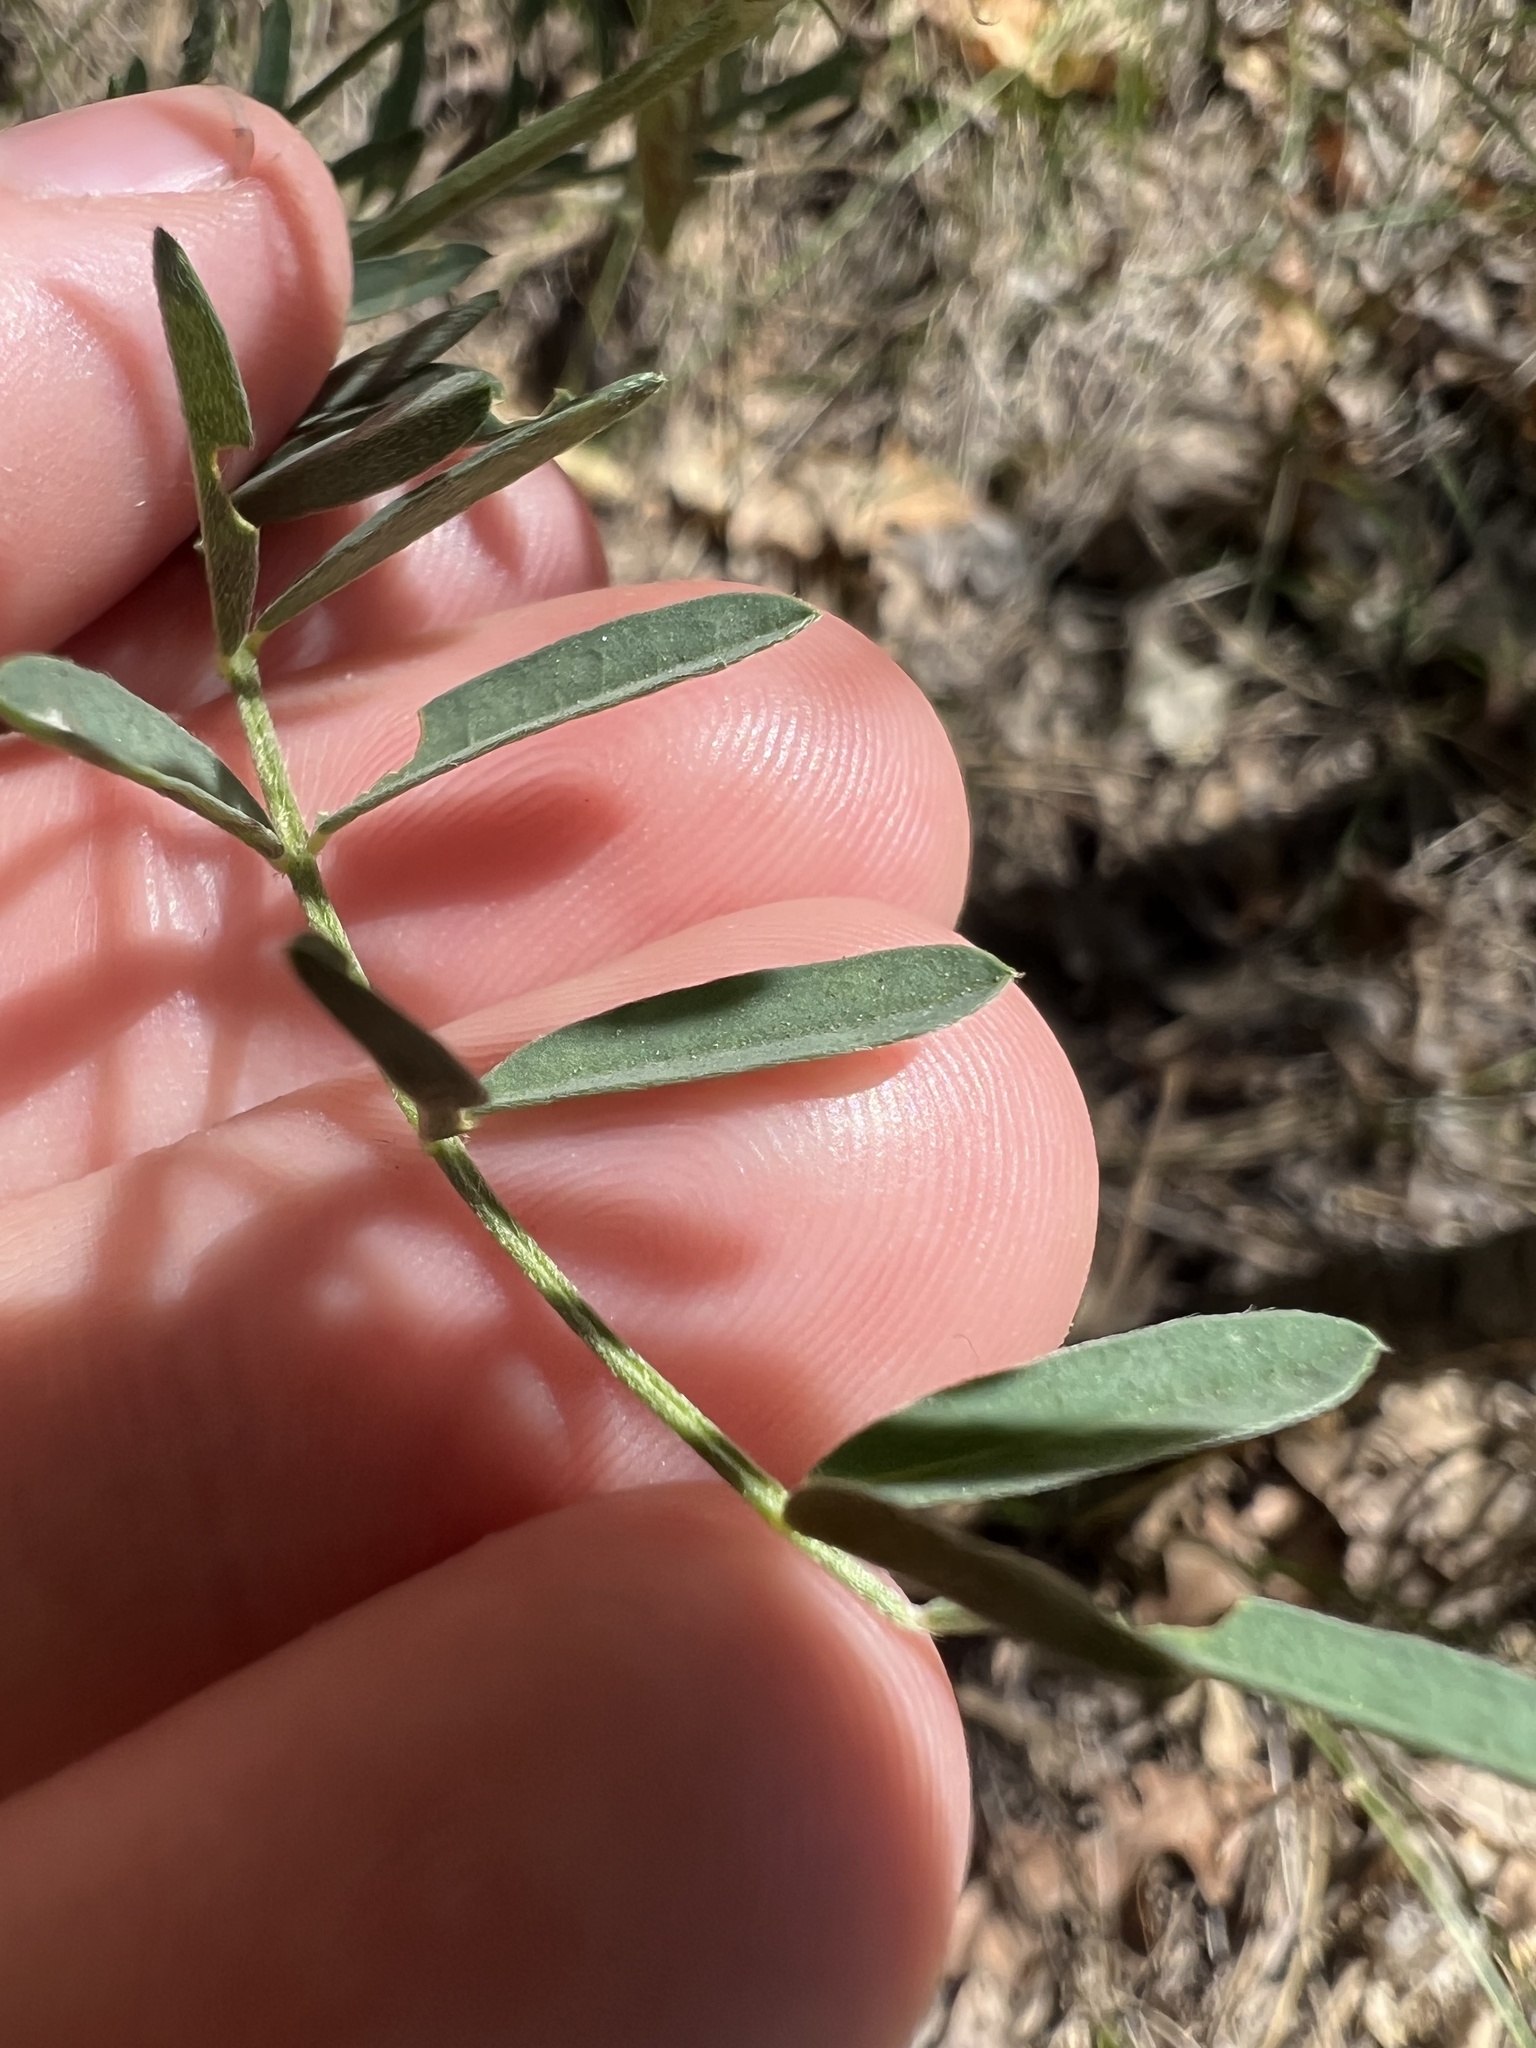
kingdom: Plantae
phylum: Tracheophyta
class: Magnoliopsida
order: Fabales
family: Fabaceae
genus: Astragalus
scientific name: Astragalus flexuosus
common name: Pliant milk-vetch
